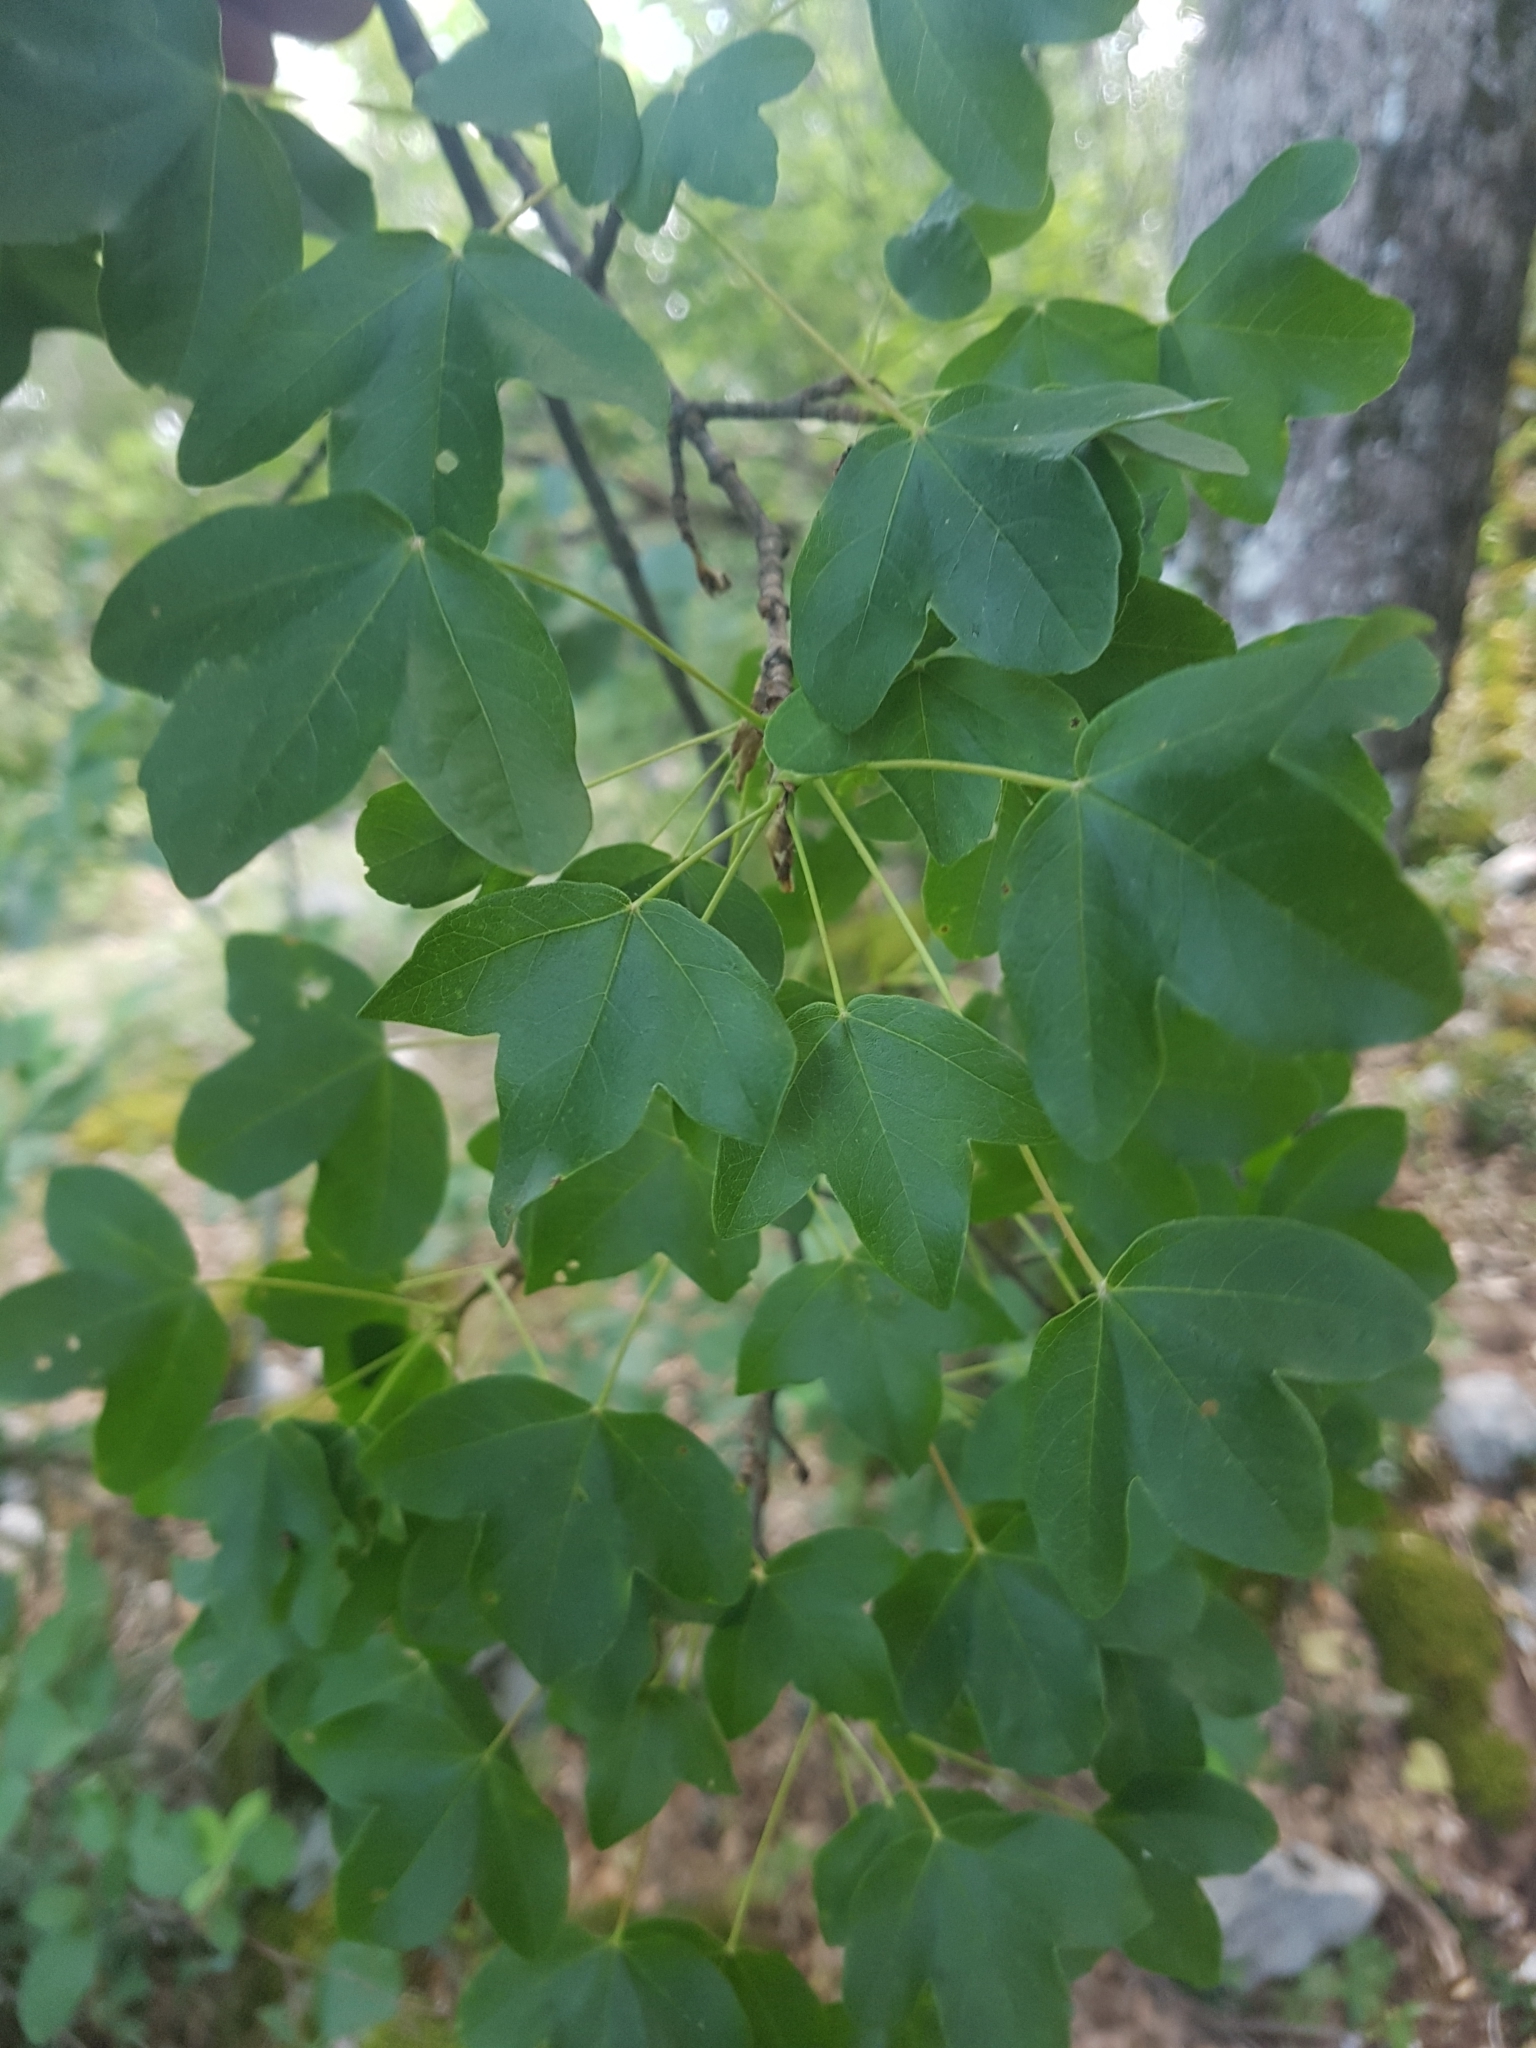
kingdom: Plantae
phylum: Tracheophyta
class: Magnoliopsida
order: Sapindales
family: Sapindaceae
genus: Acer
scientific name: Acer monspessulanum
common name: Montpellier maple
